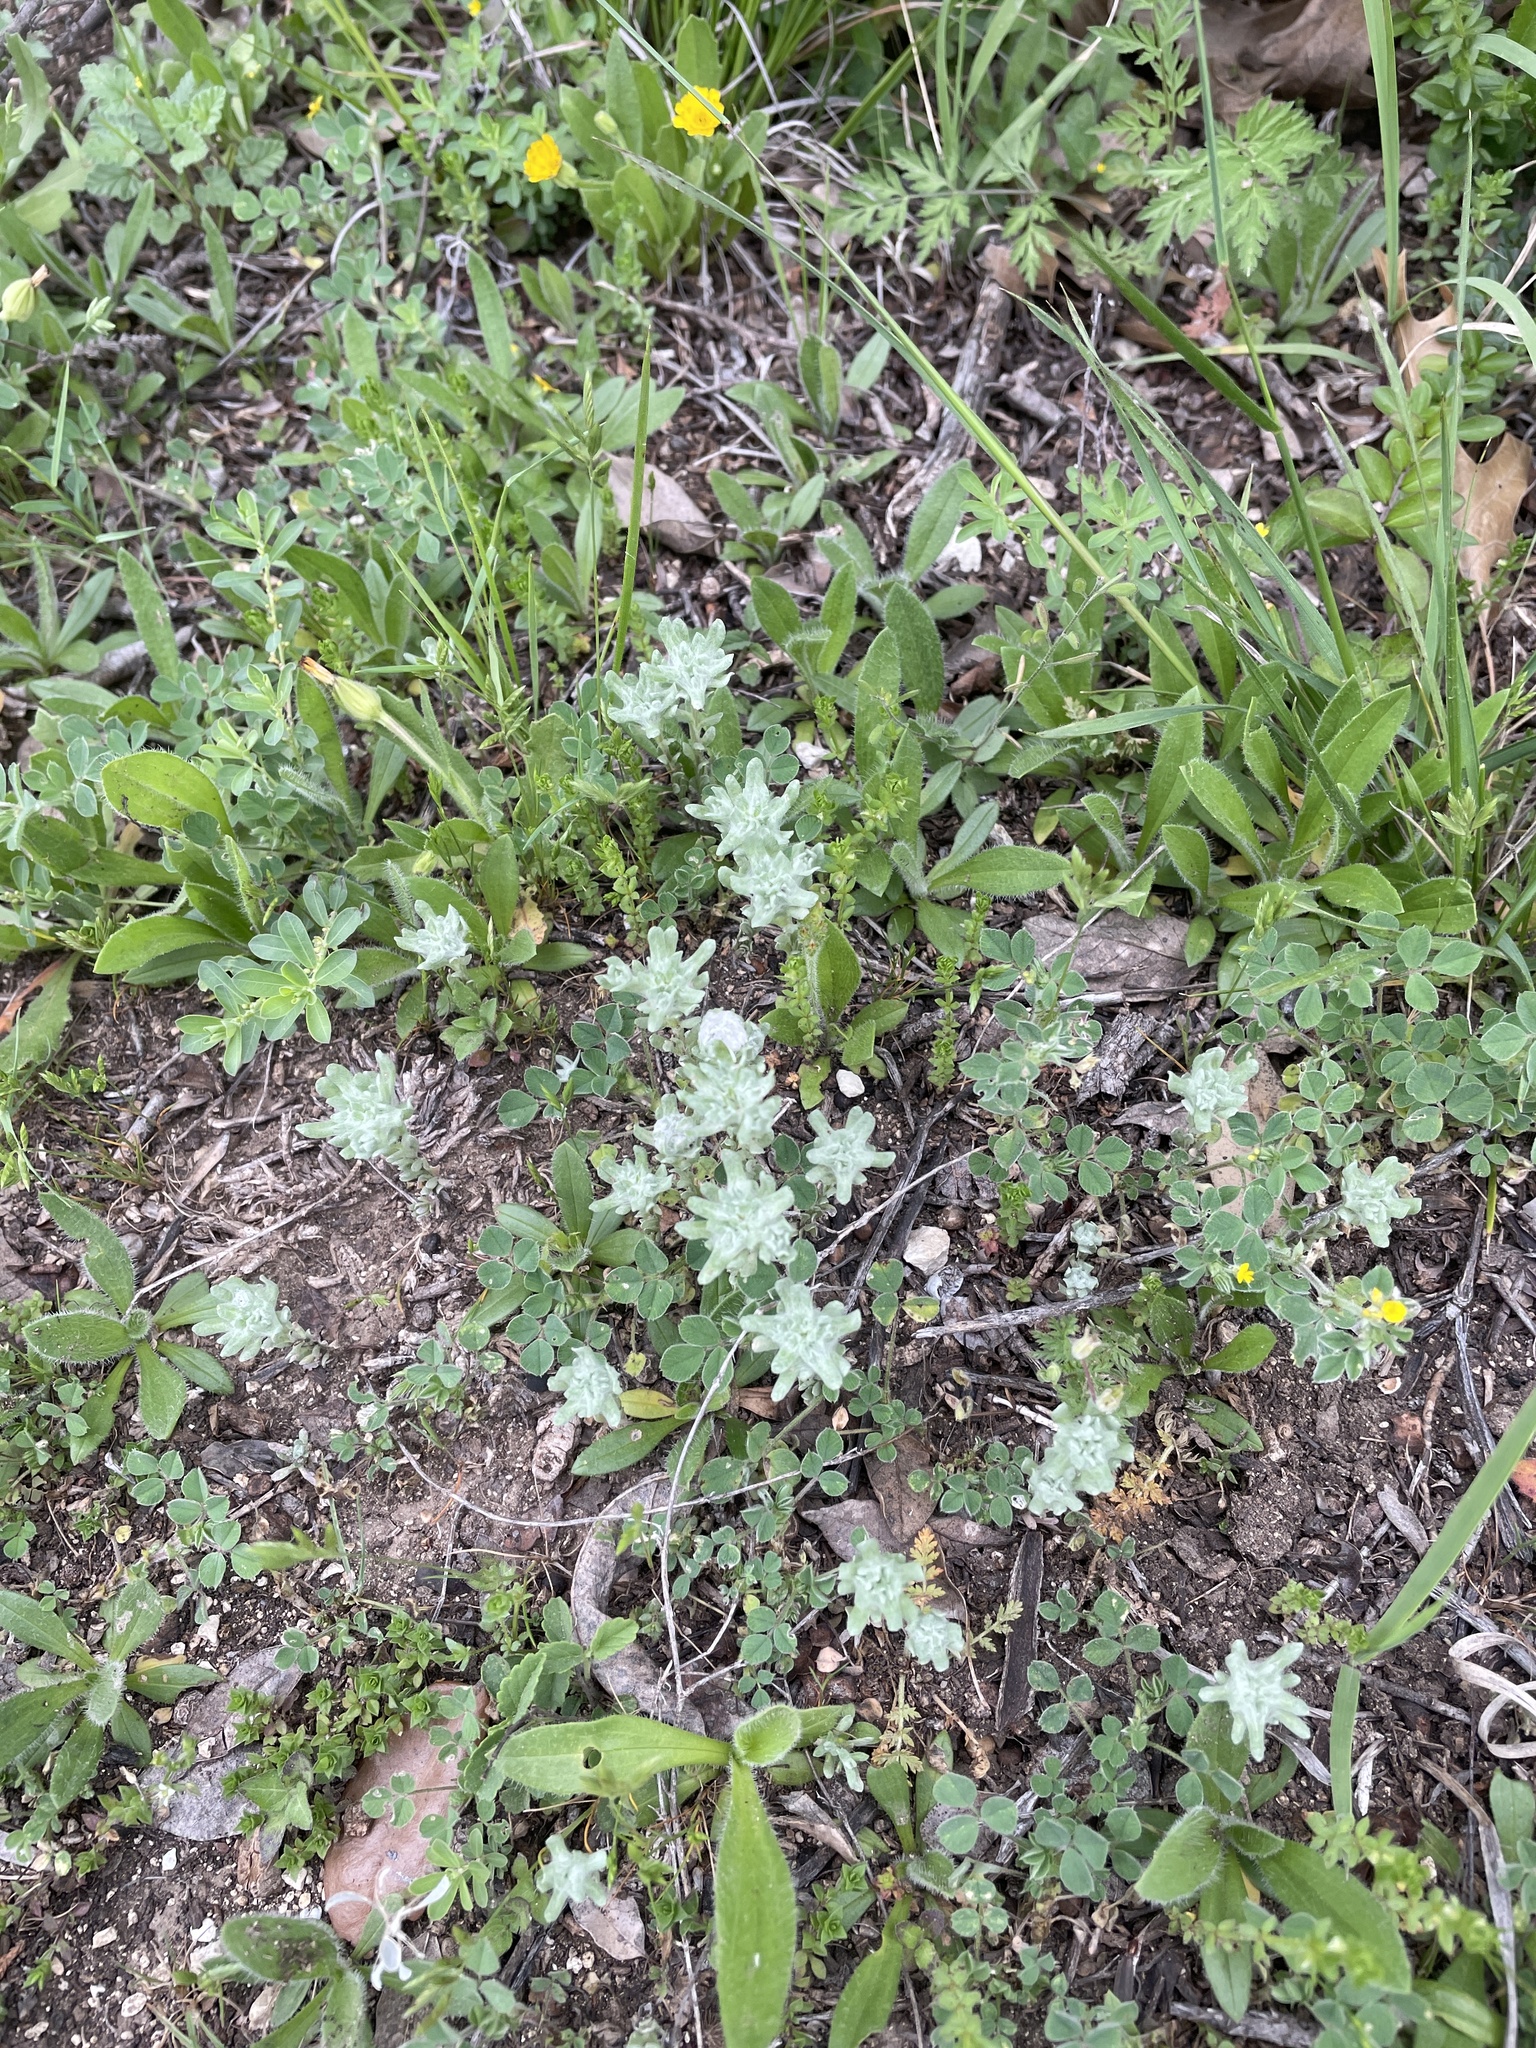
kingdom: Plantae
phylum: Tracheophyta
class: Magnoliopsida
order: Asterales
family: Asteraceae
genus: Diaperia
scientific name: Diaperia prolifera
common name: Big-head rabbit-tobacco
